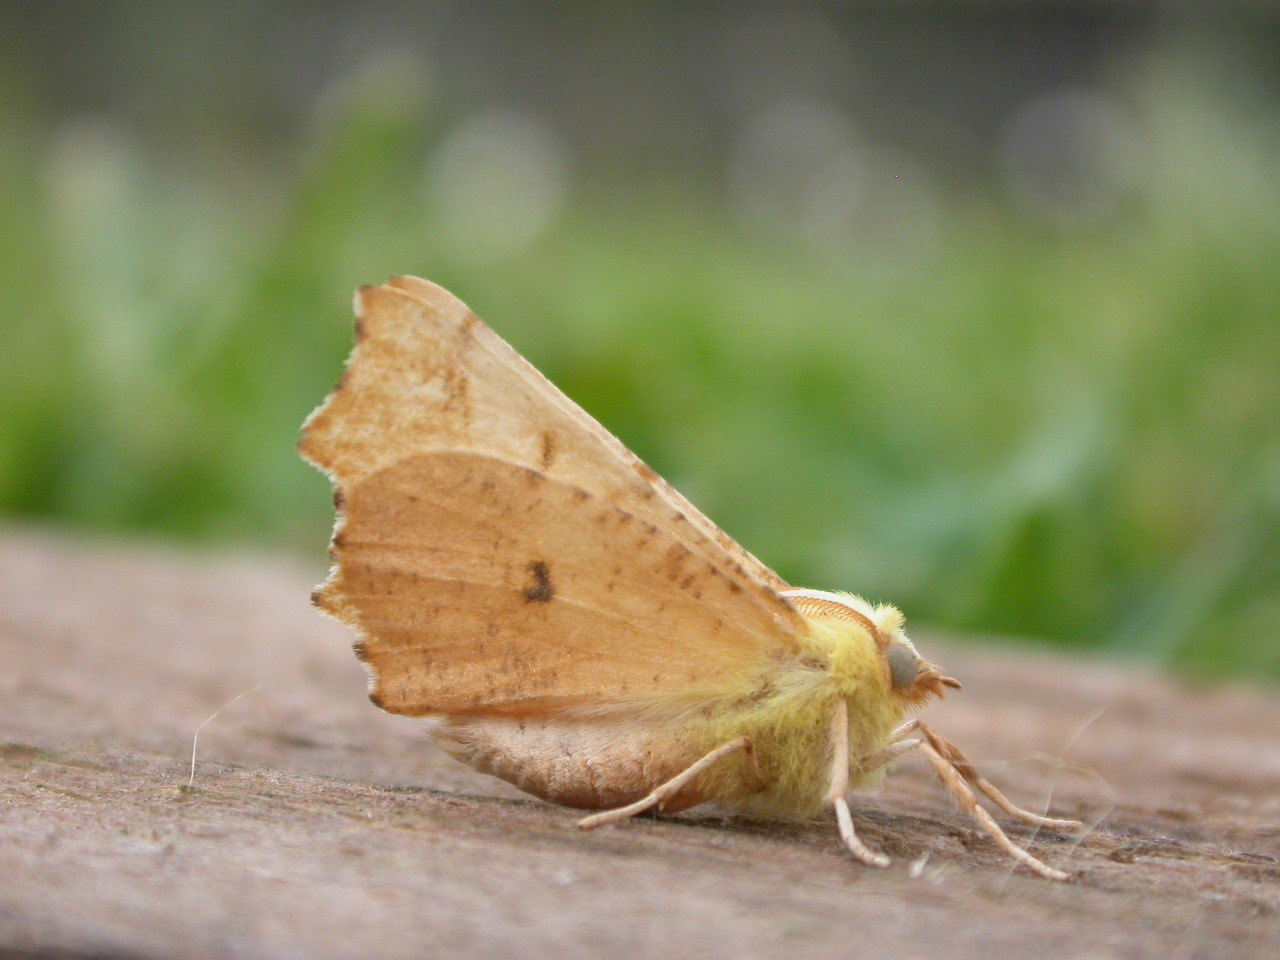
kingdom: Animalia
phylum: Arthropoda
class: Insecta
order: Lepidoptera
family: Geometridae
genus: Ennomos
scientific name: Ennomos alniaria
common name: Canary-shouldered thorn
